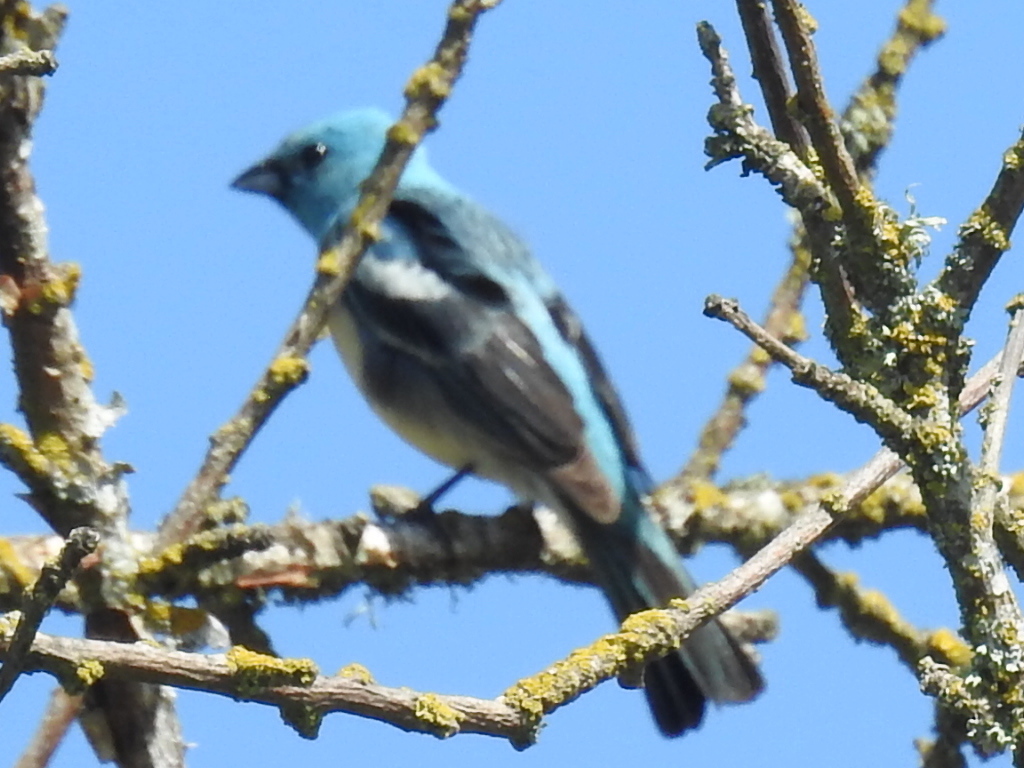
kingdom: Animalia
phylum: Chordata
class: Aves
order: Passeriformes
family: Cardinalidae
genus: Passerina
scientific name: Passerina amoena
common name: Lazuli bunting
